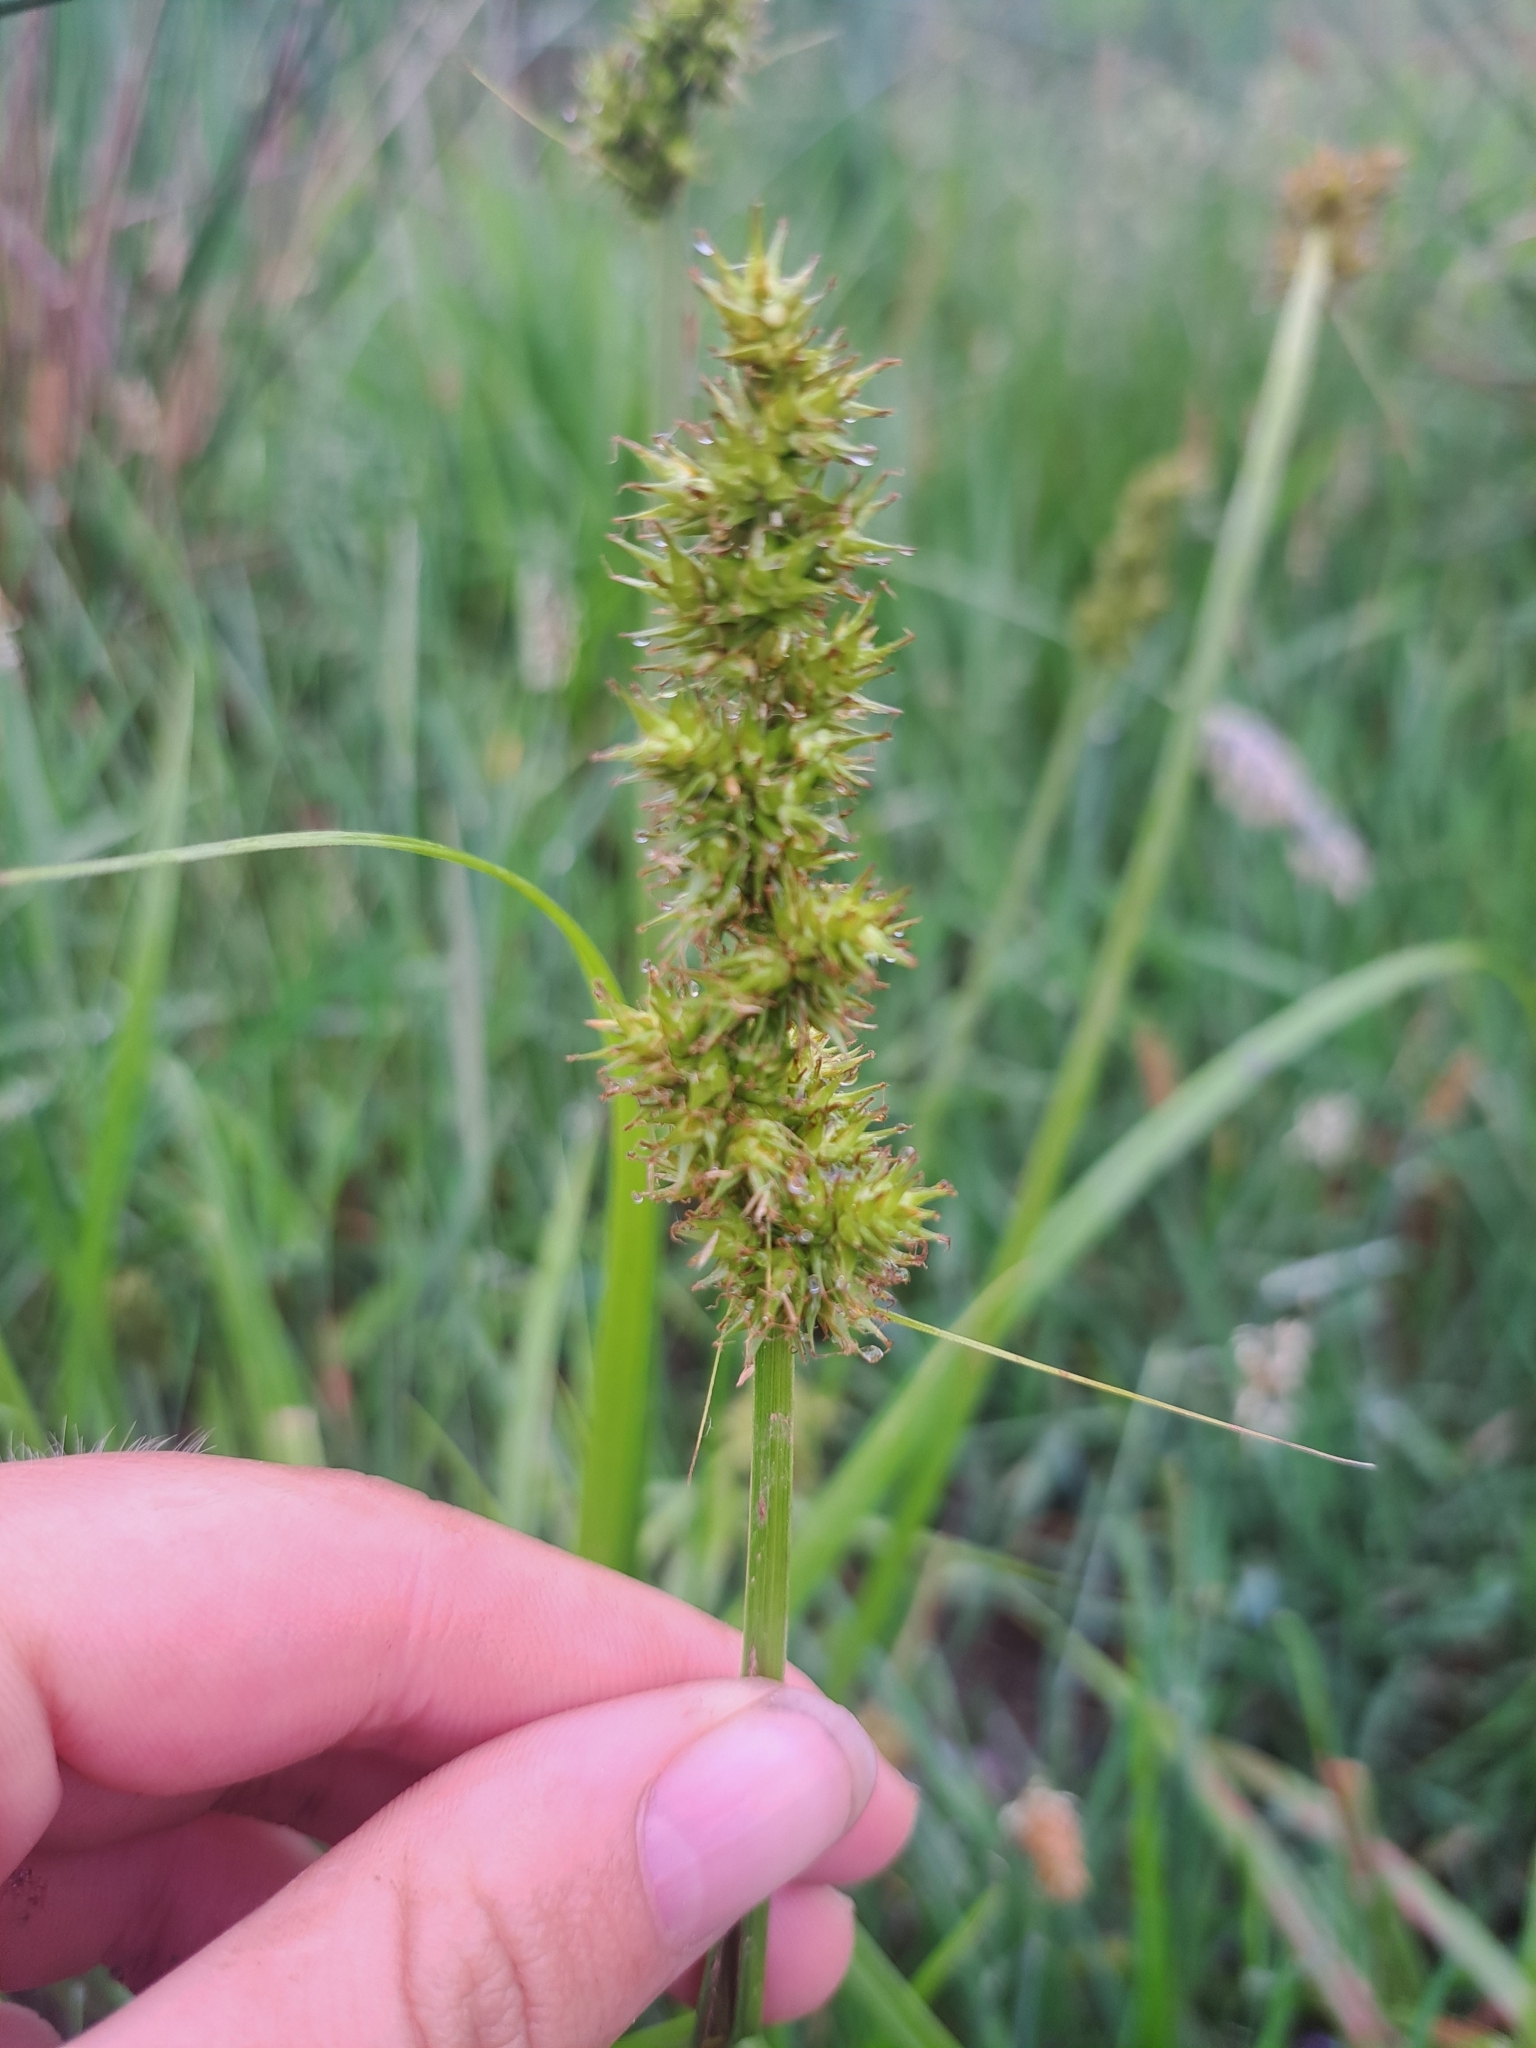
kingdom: Plantae
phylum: Tracheophyta
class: Liliopsida
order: Poales
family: Cyperaceae
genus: Carex
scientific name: Carex stipata
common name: Awl-fruited sedge
